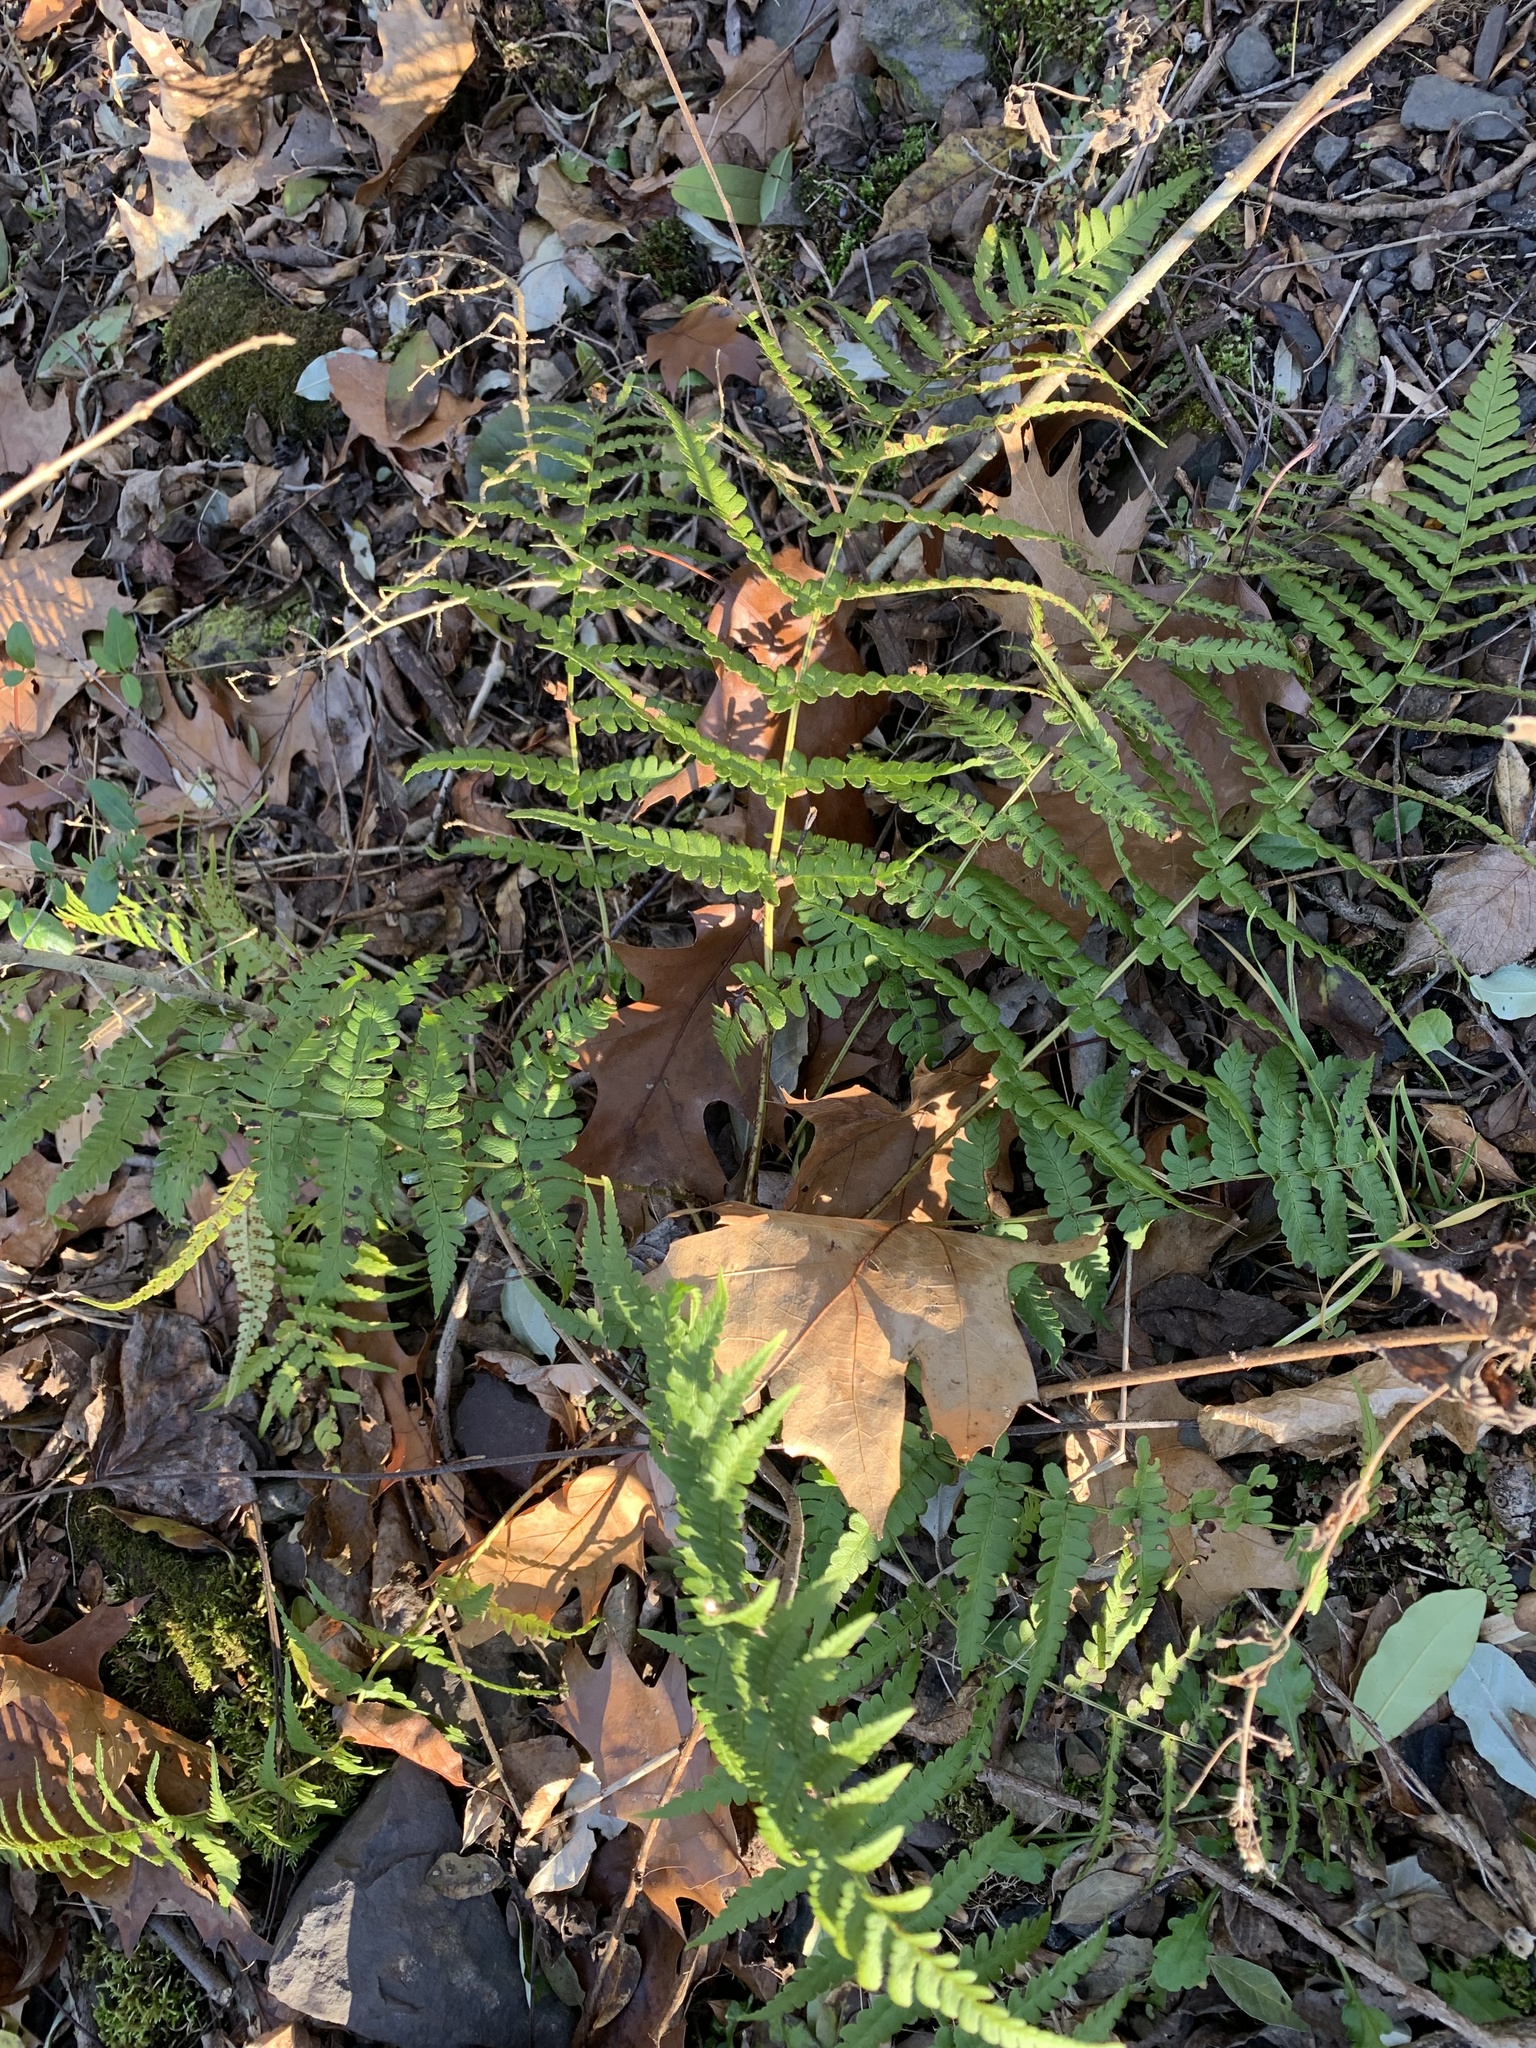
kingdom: Plantae
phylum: Tracheophyta
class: Polypodiopsida
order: Polypodiales
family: Dryopteridaceae
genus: Dryopteris
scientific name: Dryopteris marginalis
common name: Marginal wood fern
